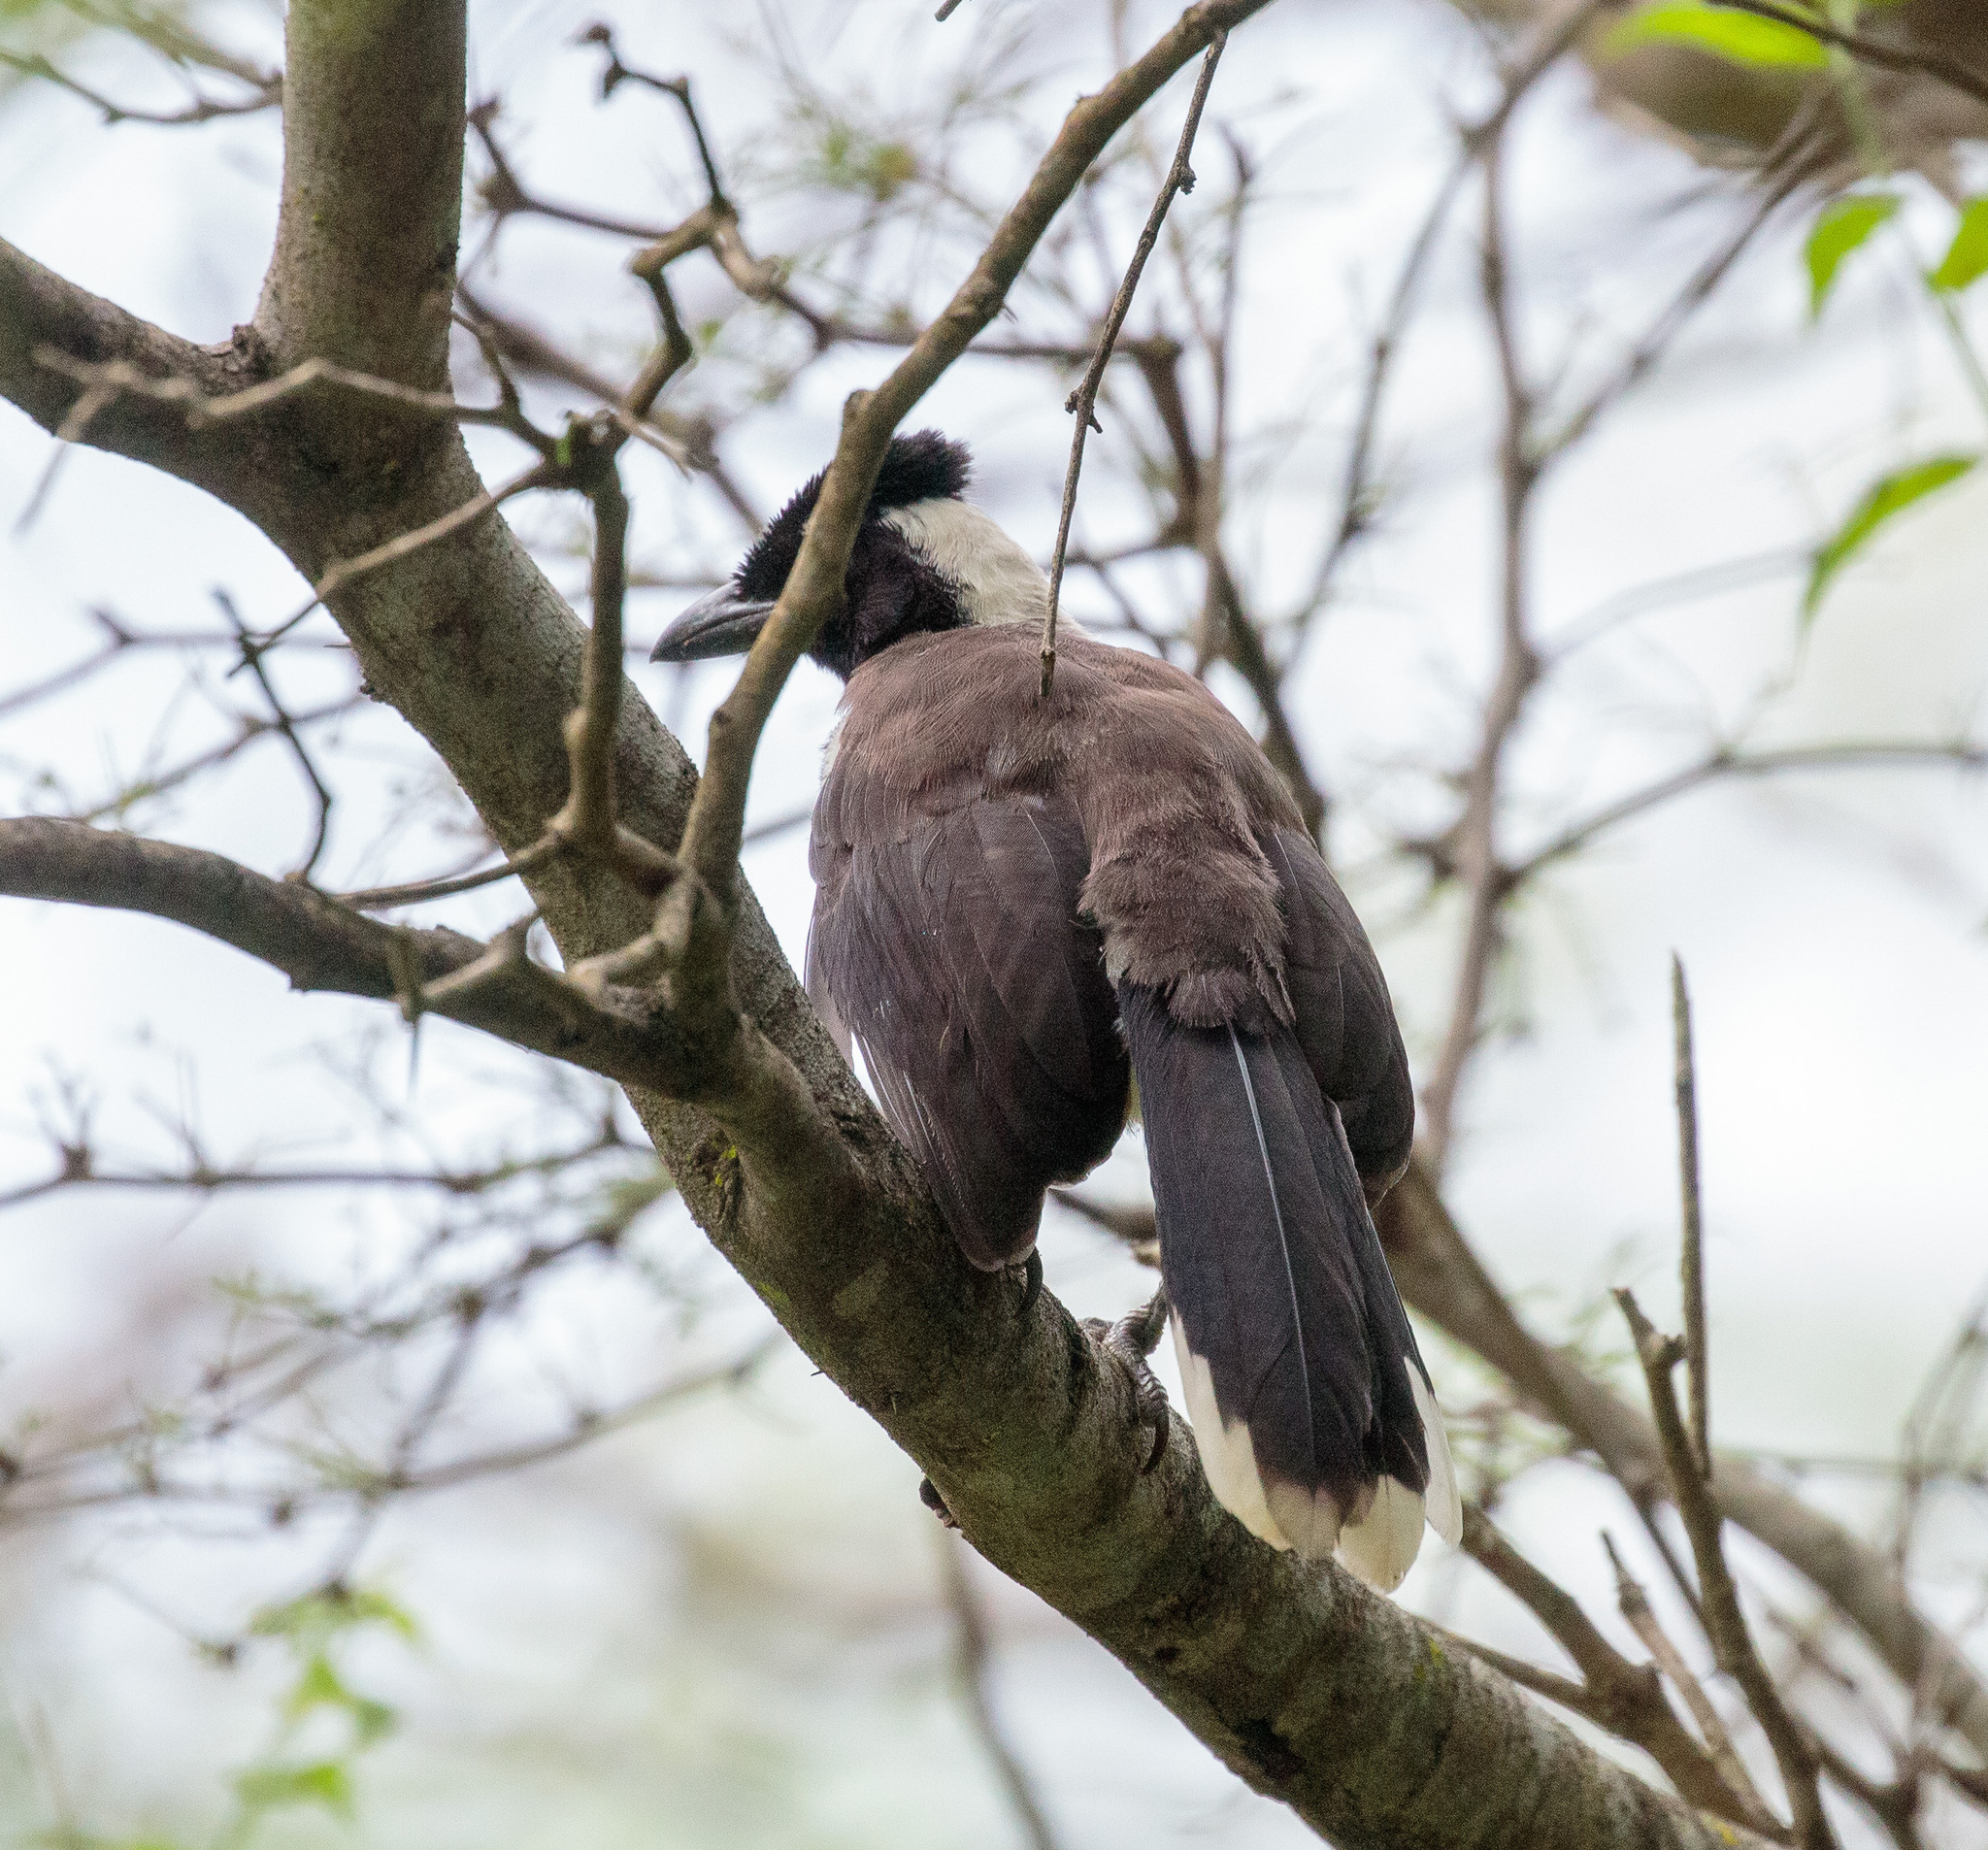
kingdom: Animalia
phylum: Chordata
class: Aves
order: Passeriformes
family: Corvidae
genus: Cyanocorax
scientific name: Cyanocorax cyanopogon
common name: White-naped jay
